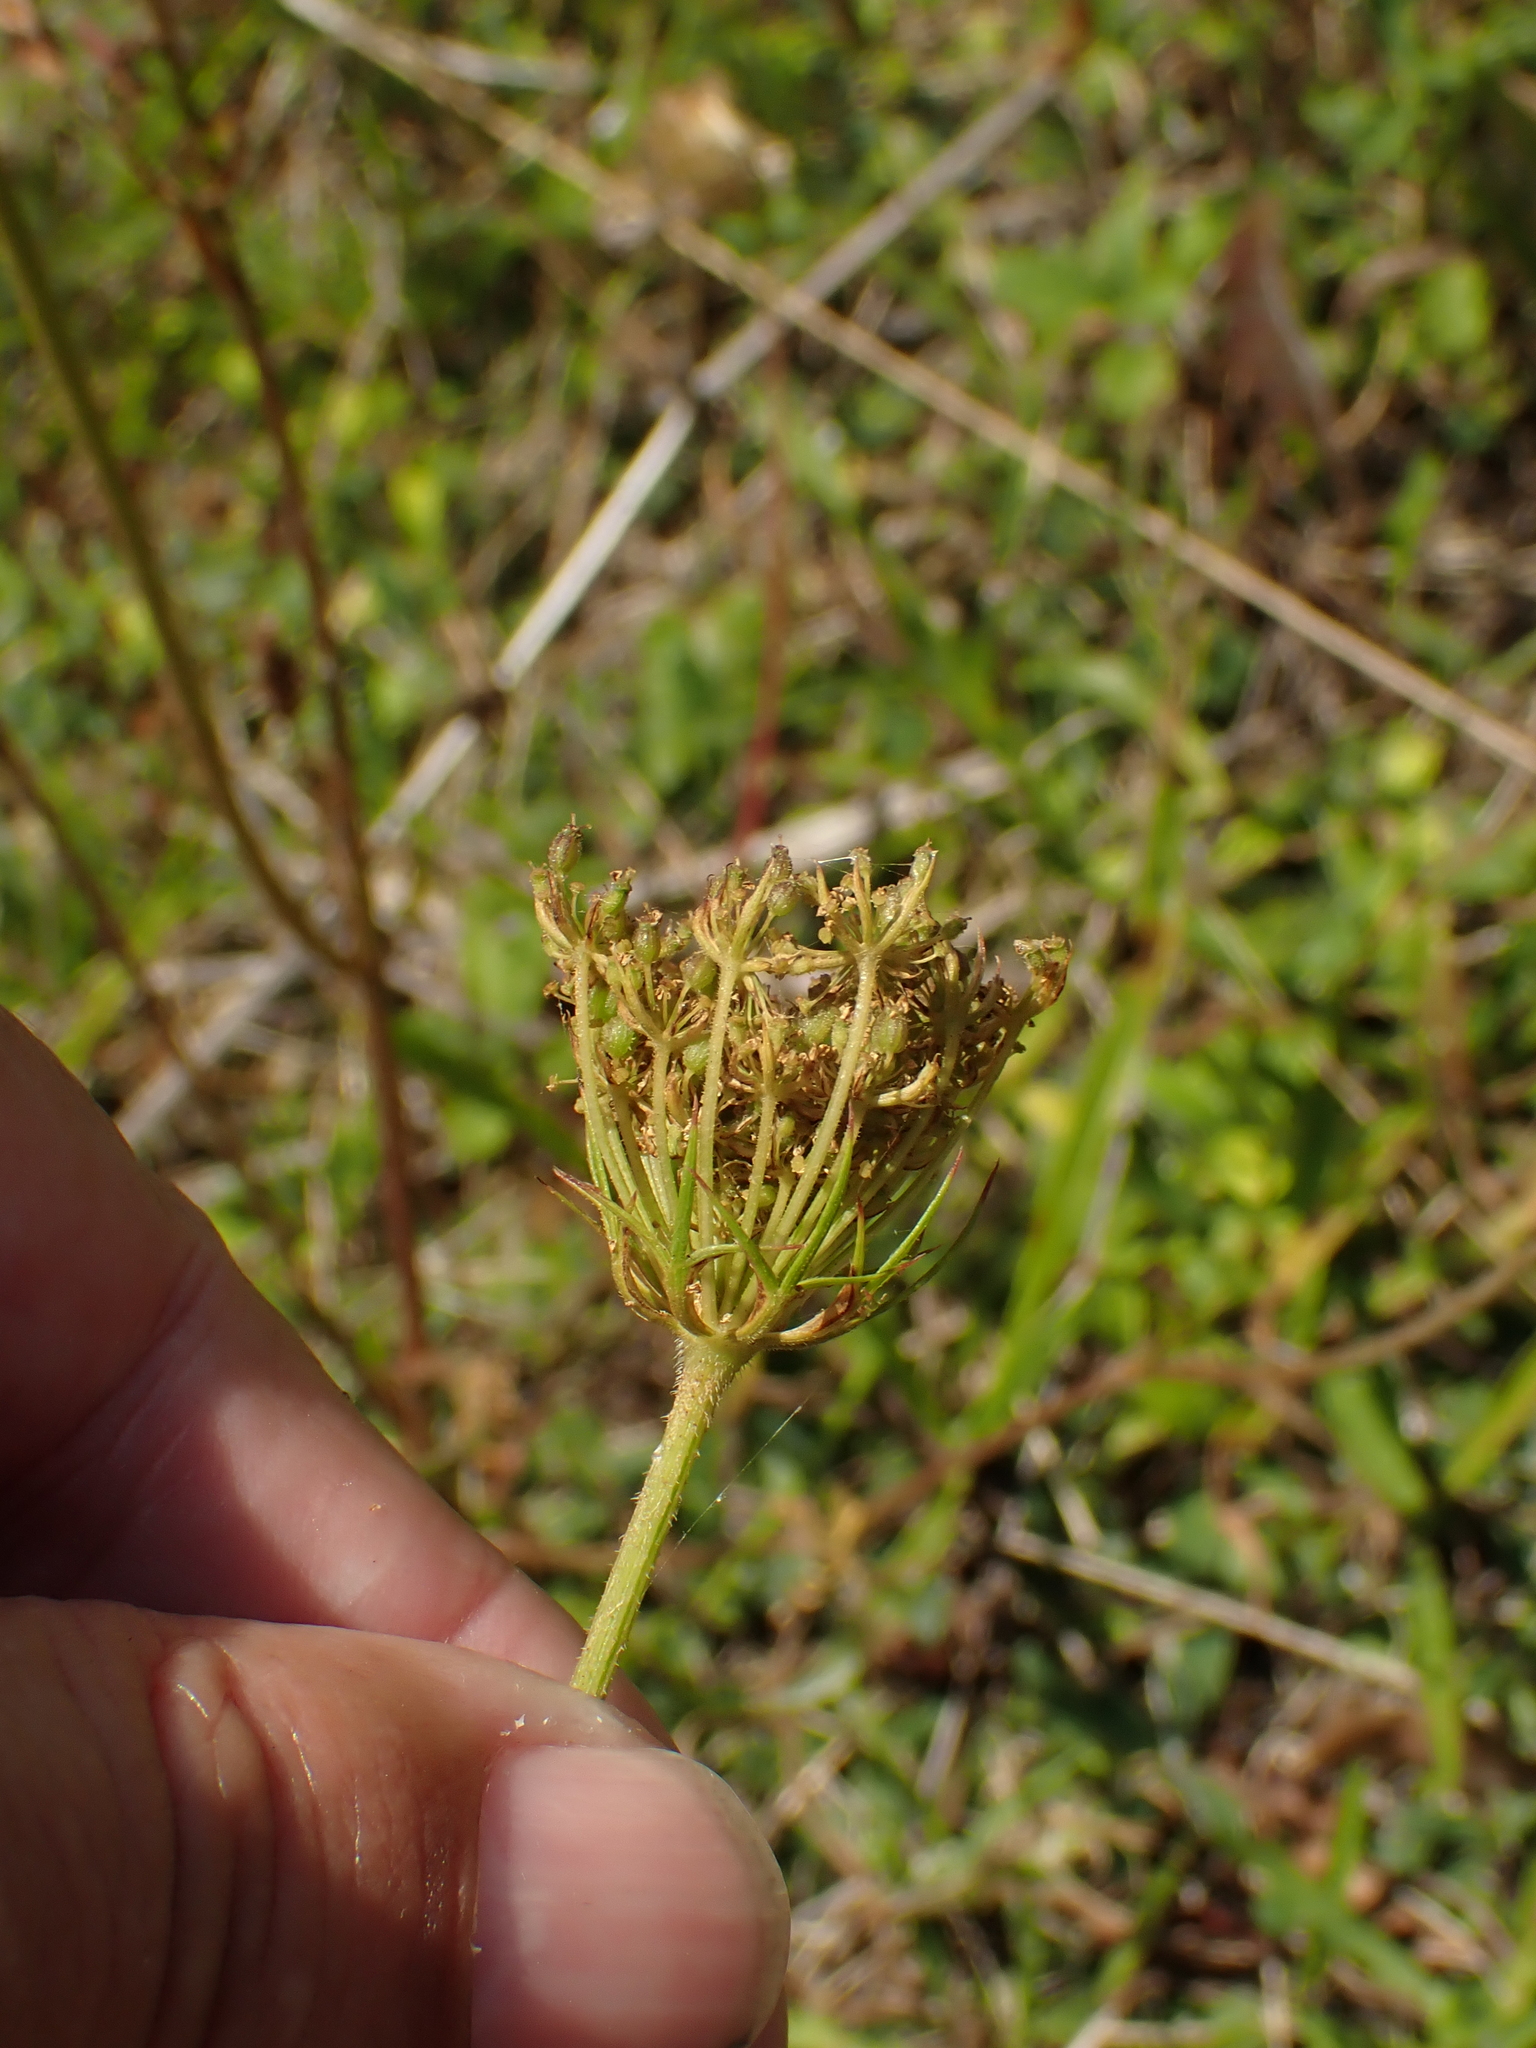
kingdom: Plantae
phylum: Tracheophyta
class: Magnoliopsida
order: Apiales
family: Apiaceae
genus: Daucus
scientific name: Daucus carota
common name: Wild carrot
